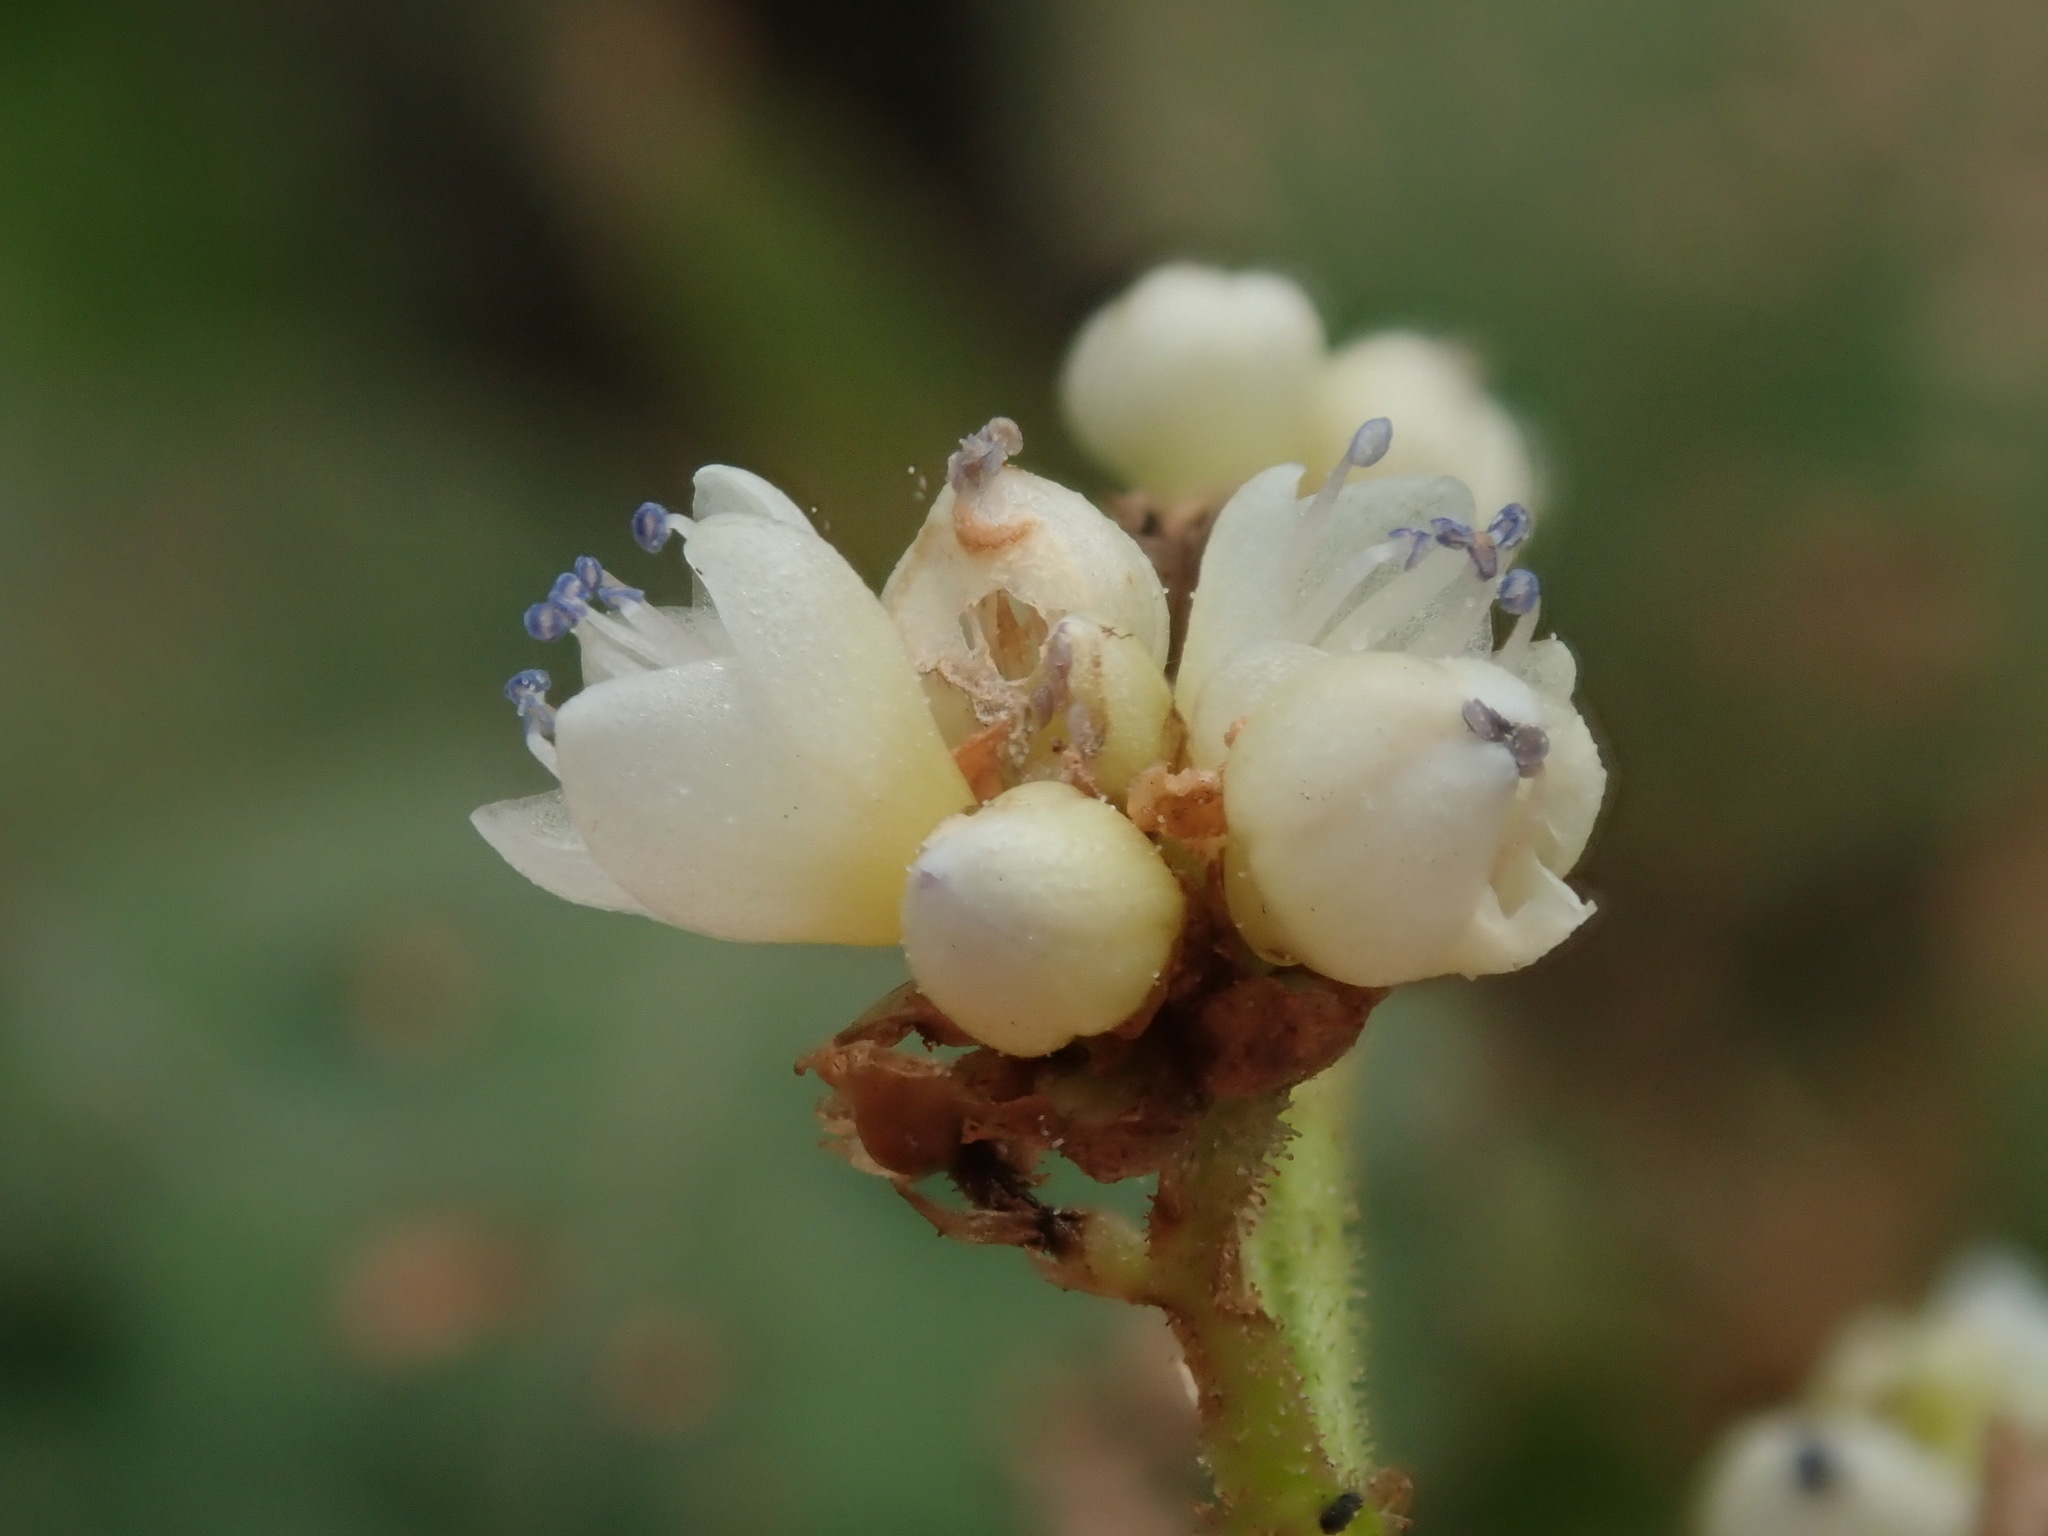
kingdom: Plantae
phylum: Tracheophyta
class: Magnoliopsida
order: Caryophyllales
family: Polygonaceae
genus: Persicaria
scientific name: Persicaria chinensis
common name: Chinese knotweed
